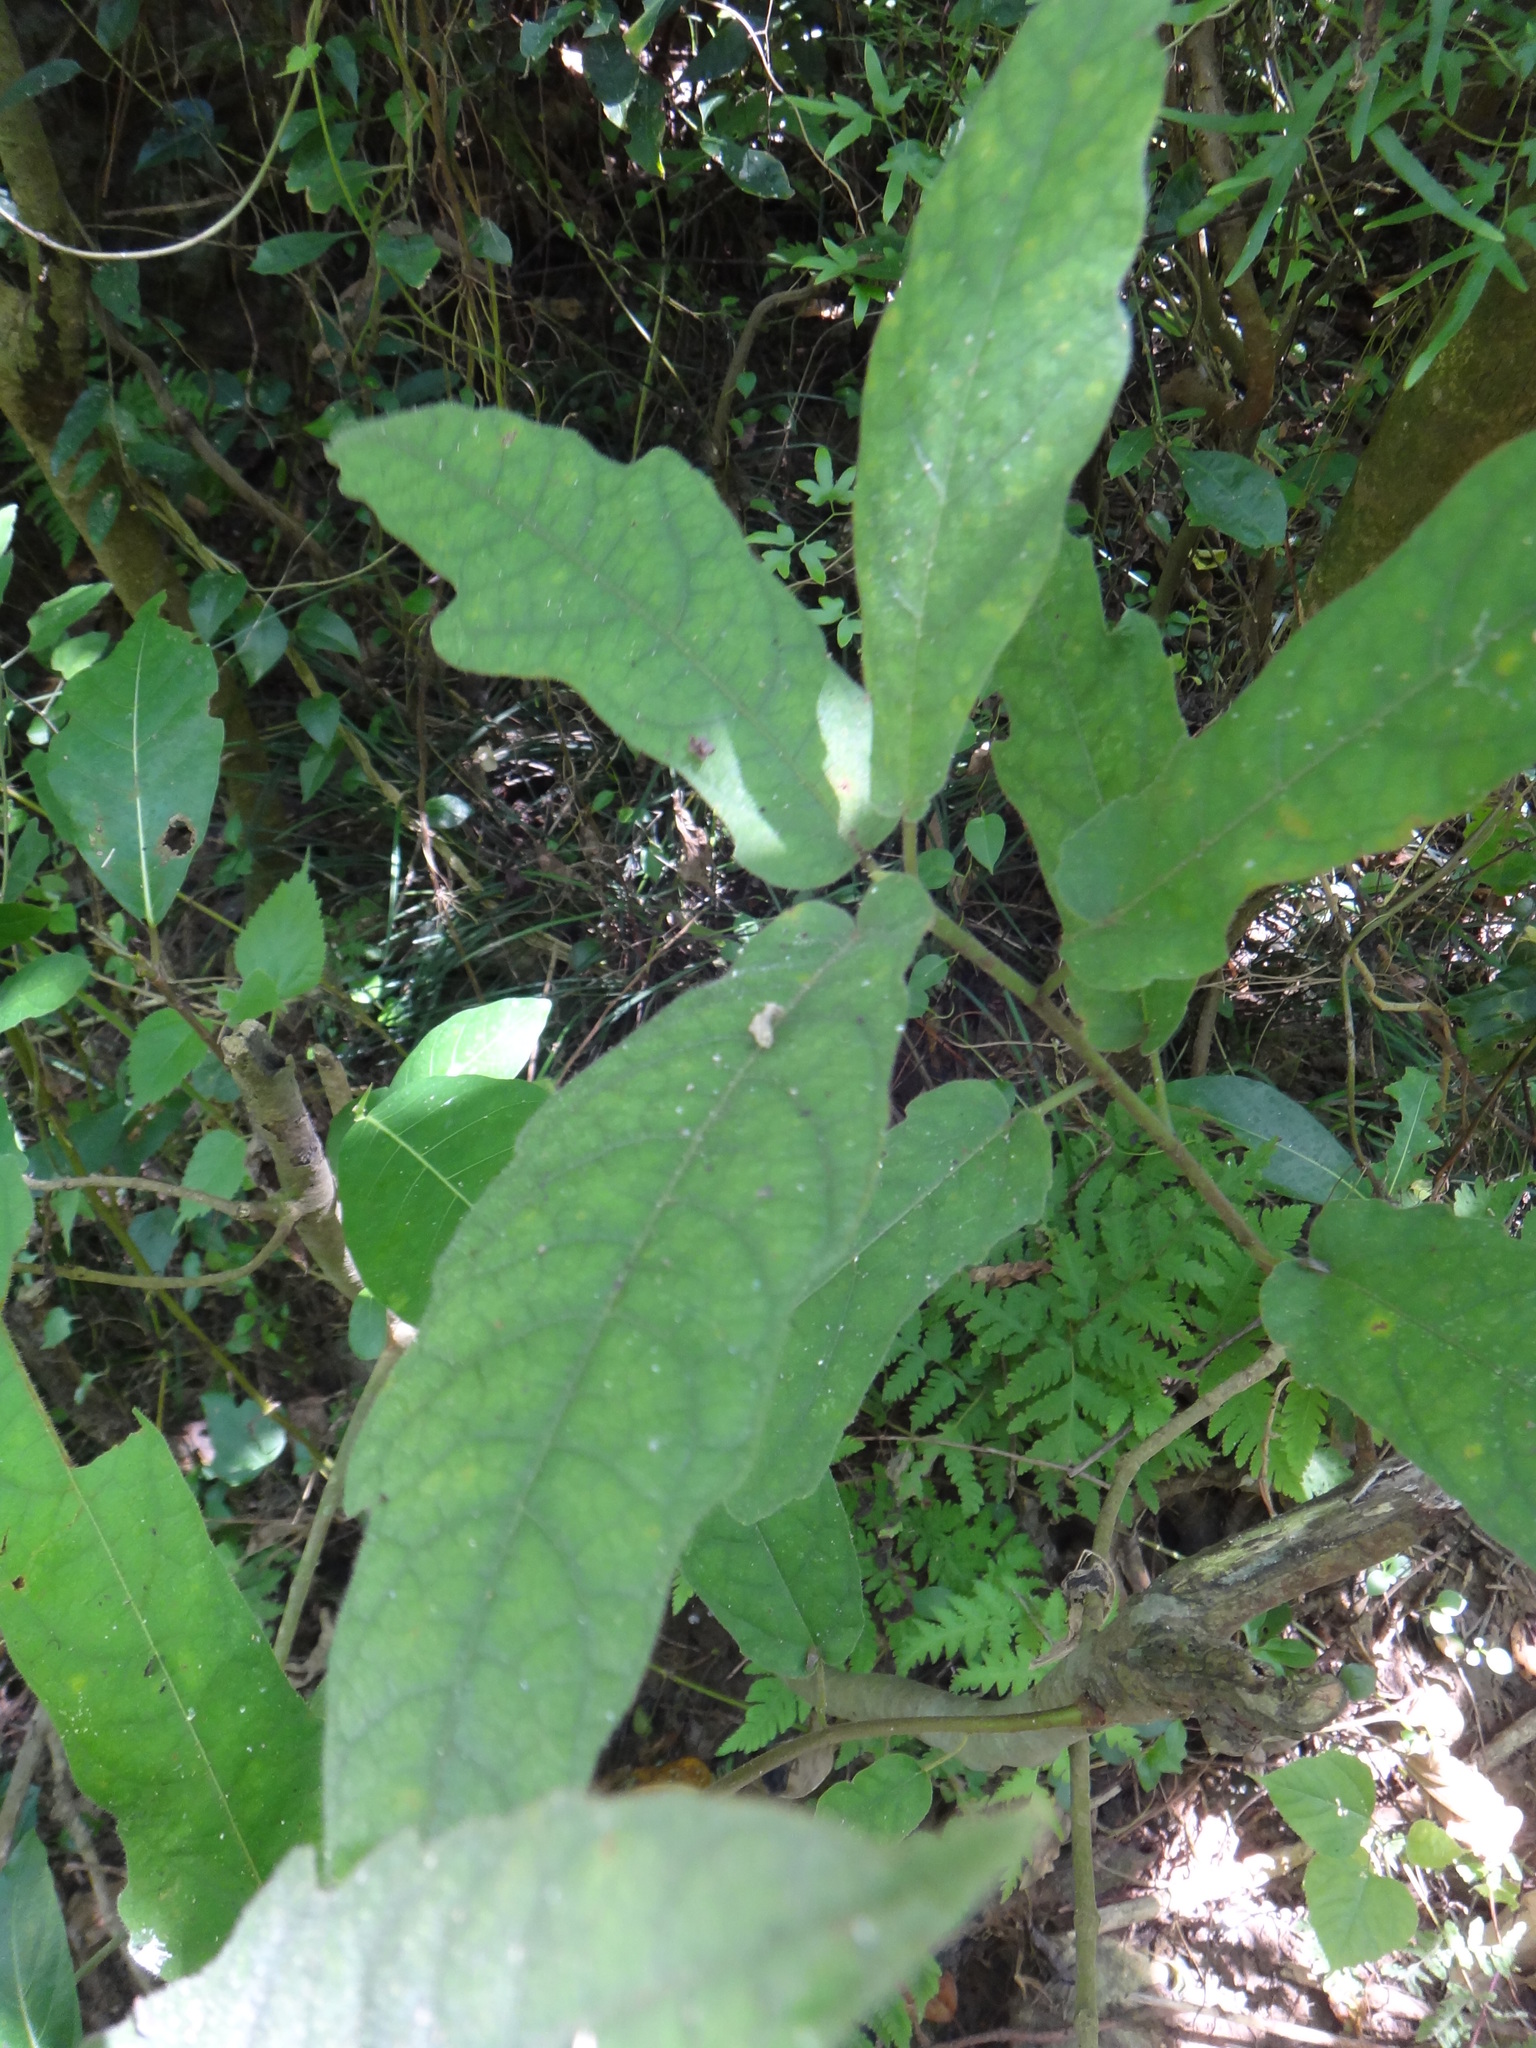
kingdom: Plantae
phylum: Tracheophyta
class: Magnoliopsida
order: Rosales
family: Moraceae
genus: Ficus
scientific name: Ficus erecta
